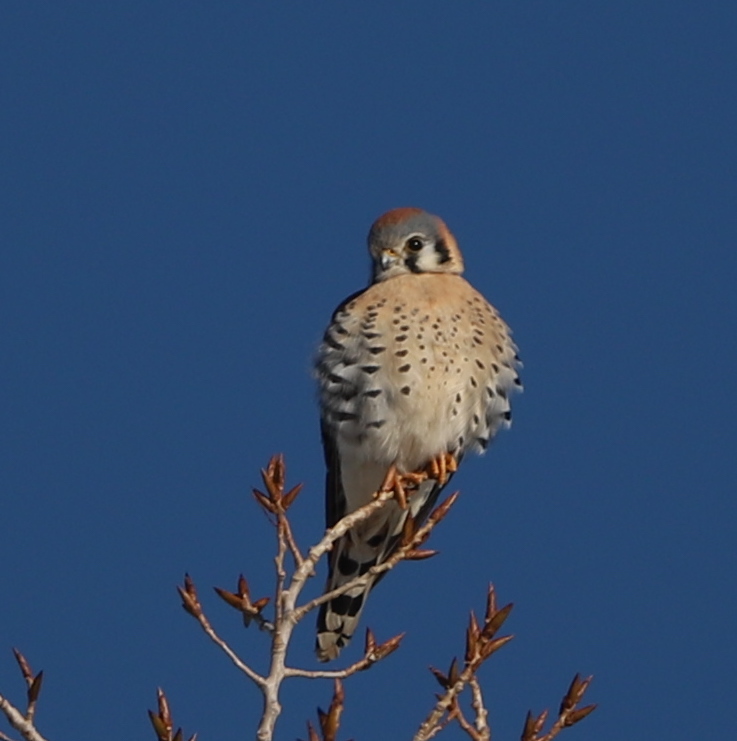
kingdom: Animalia
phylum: Chordata
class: Aves
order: Falconiformes
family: Falconidae
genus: Falco
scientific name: Falco sparverius
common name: American kestrel
